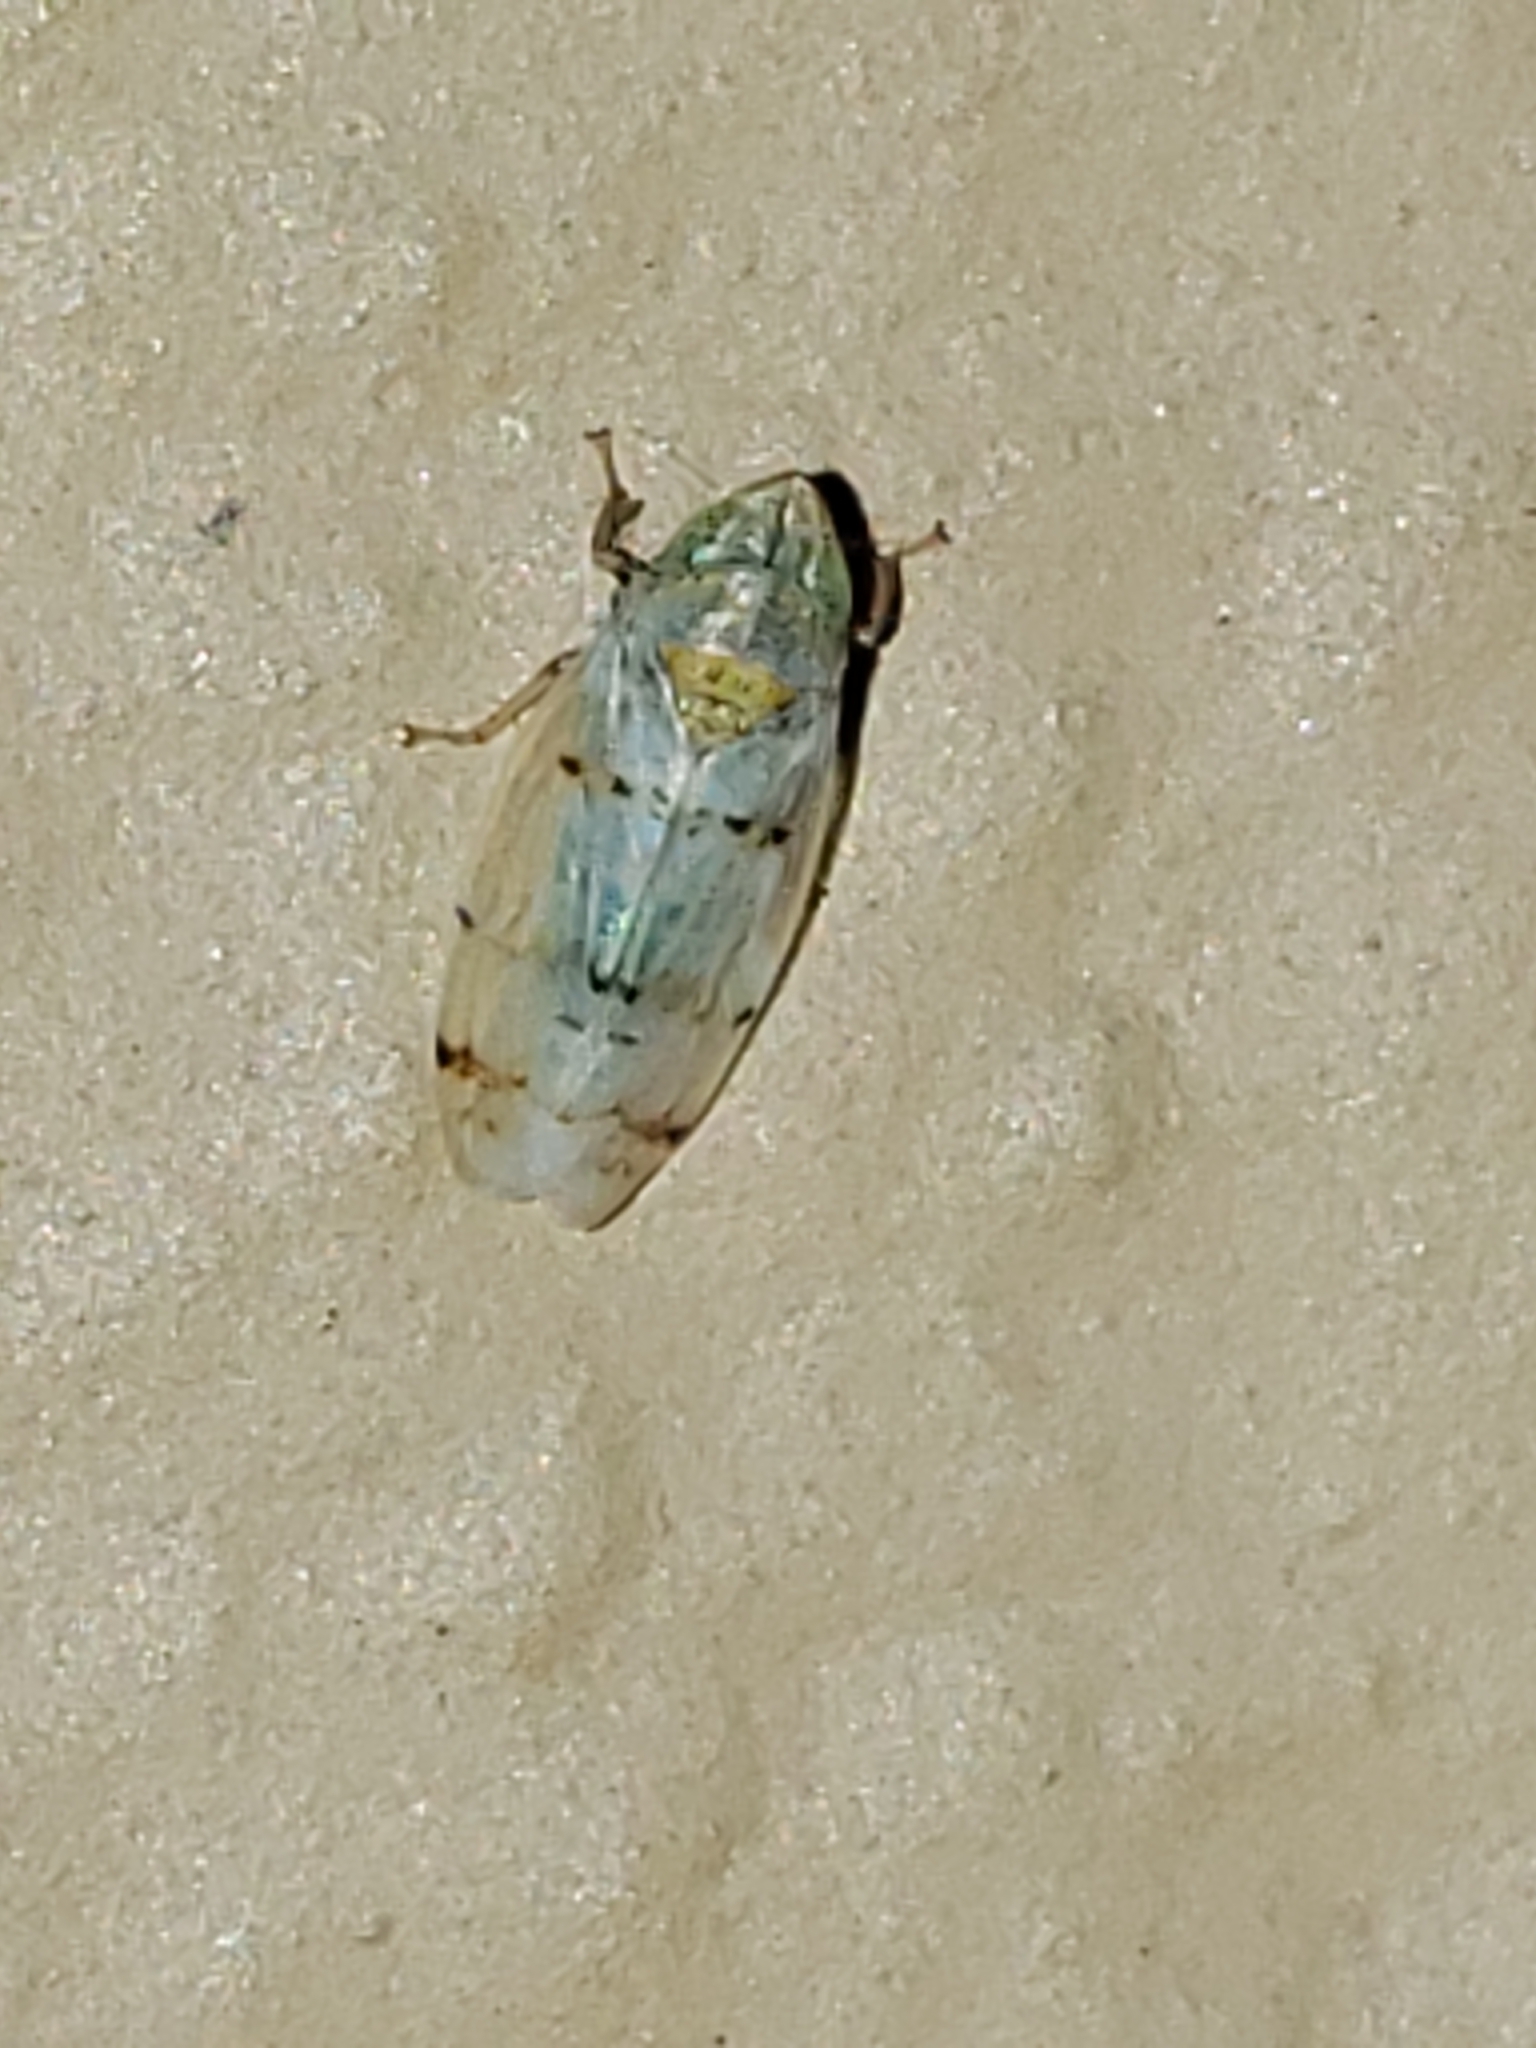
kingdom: Animalia
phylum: Arthropoda
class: Insecta
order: Hemiptera
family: Cicadellidae
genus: Japananus
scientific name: Japananus hyalinus
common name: The japanese maple leafhopper
